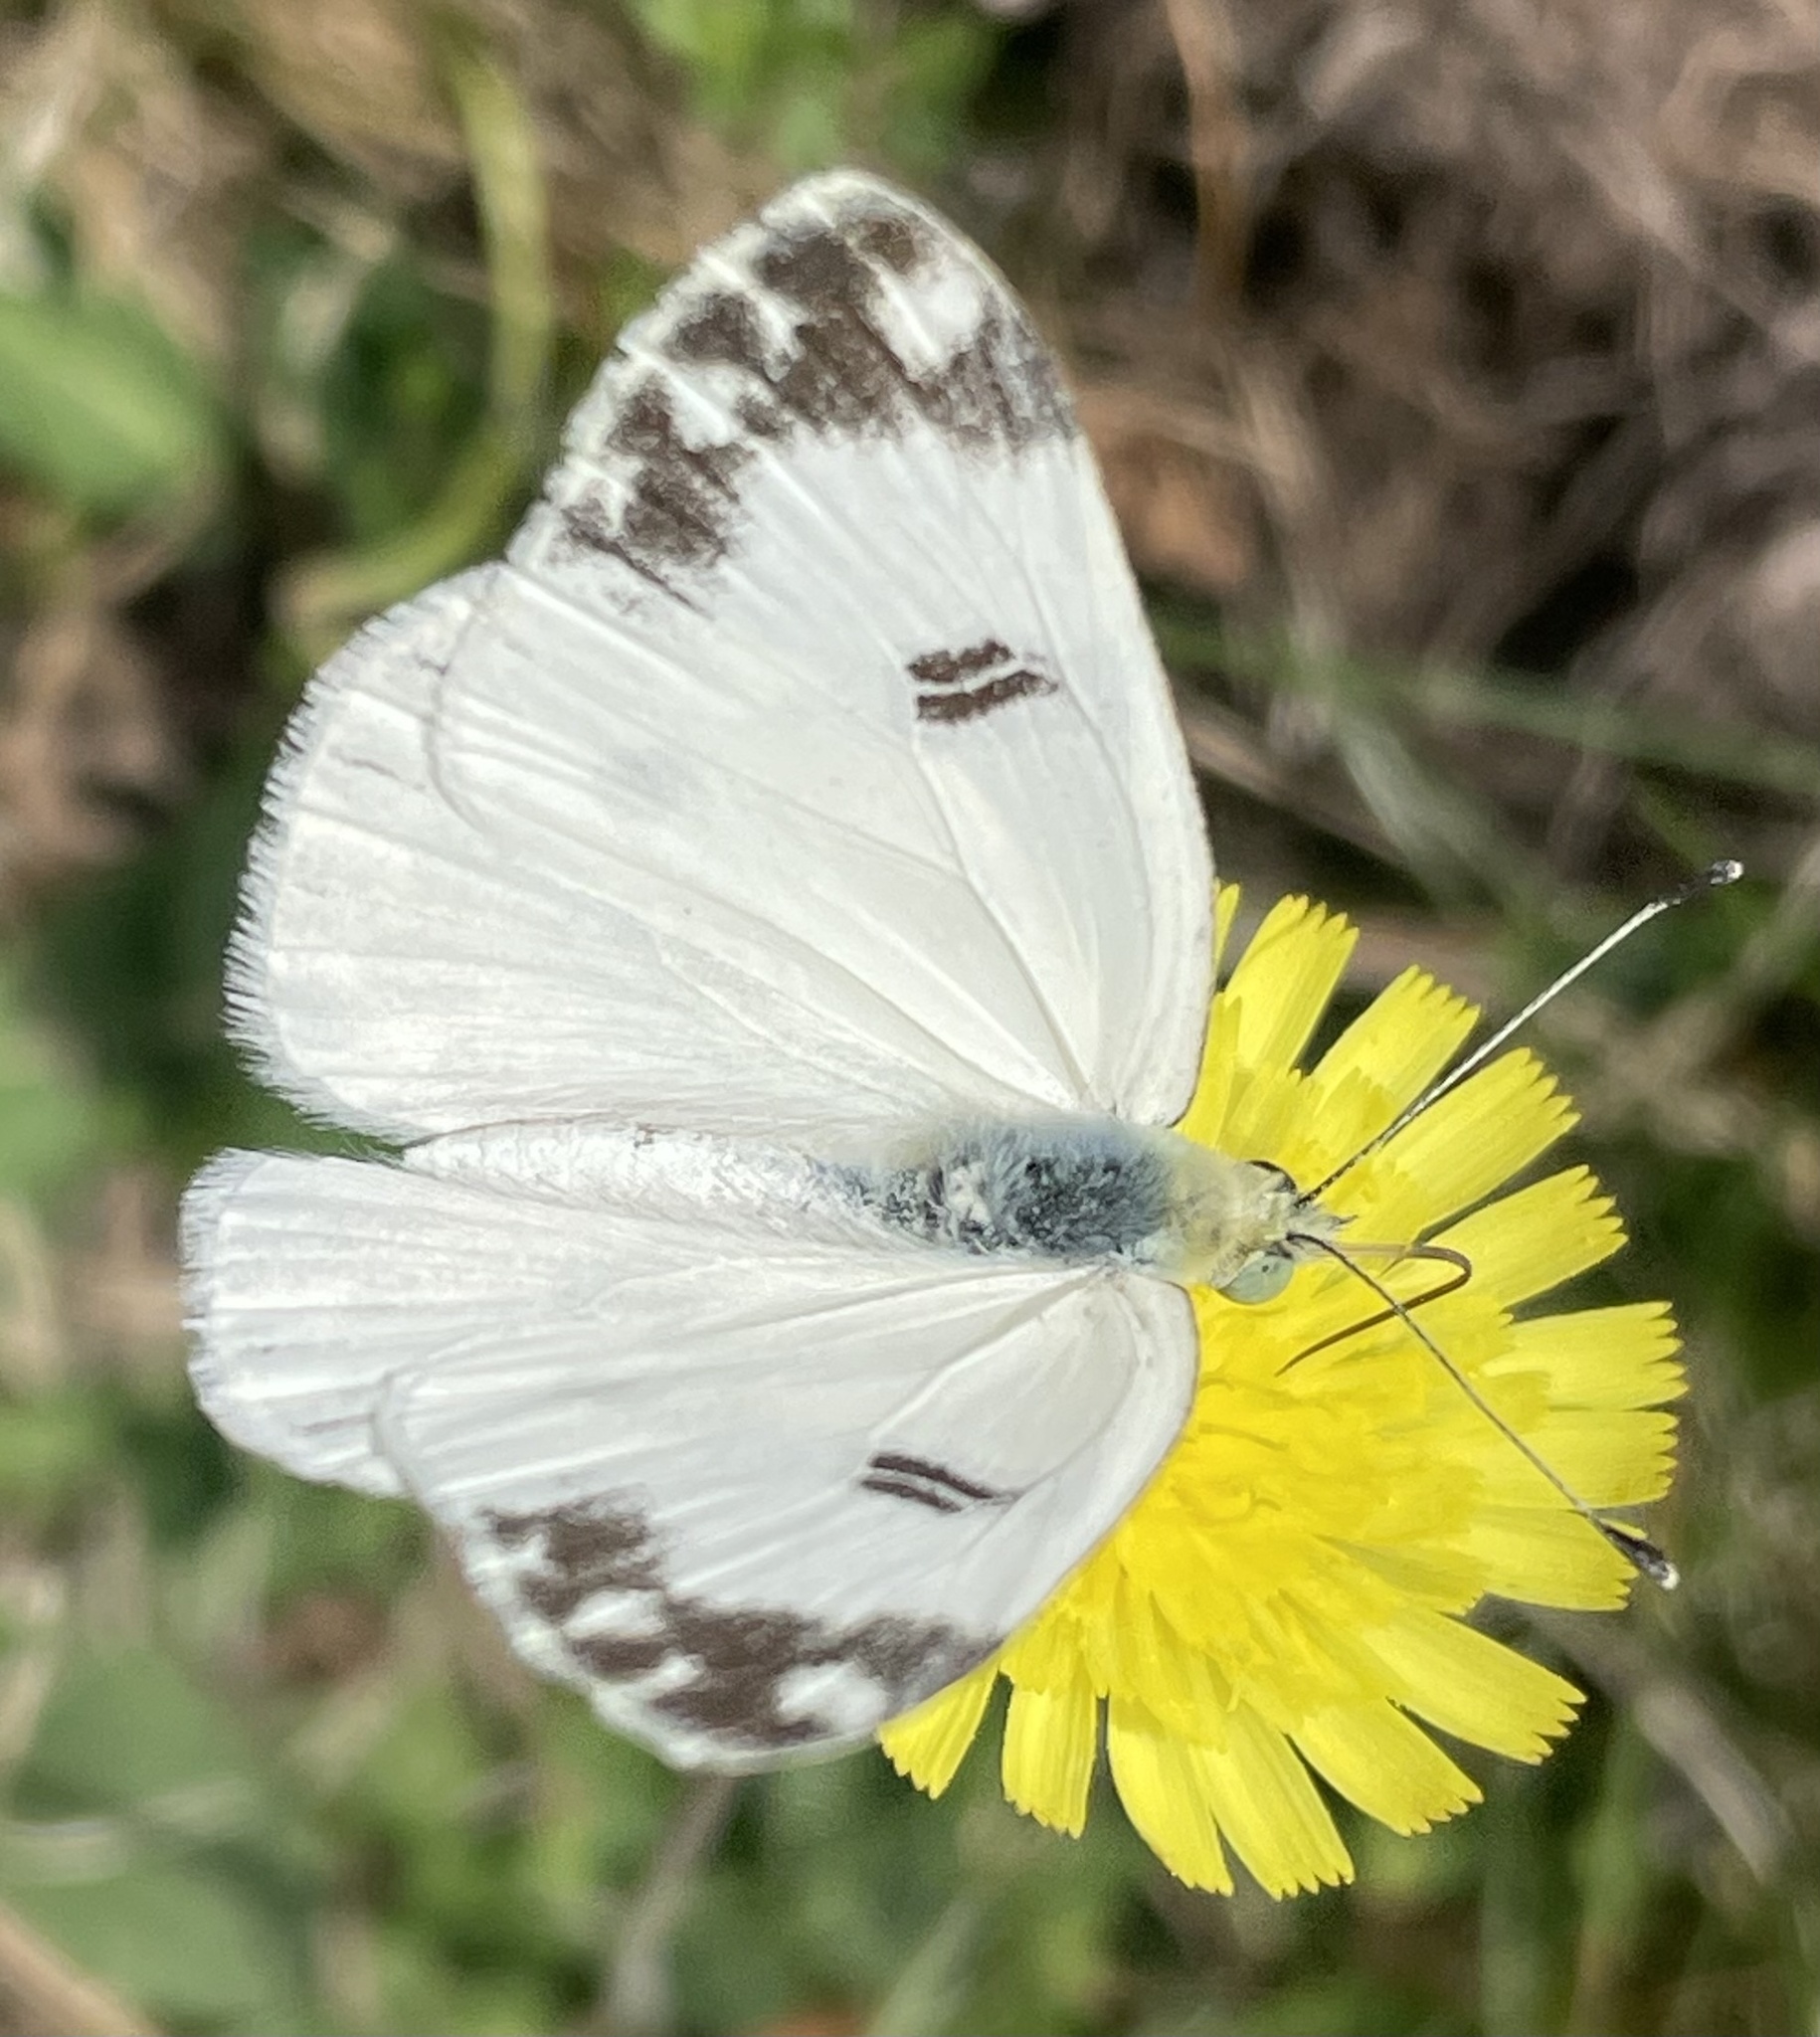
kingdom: Animalia
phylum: Arthropoda
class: Insecta
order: Lepidoptera
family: Pieridae
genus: Pontia
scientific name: Pontia daplidice
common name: Bath white
